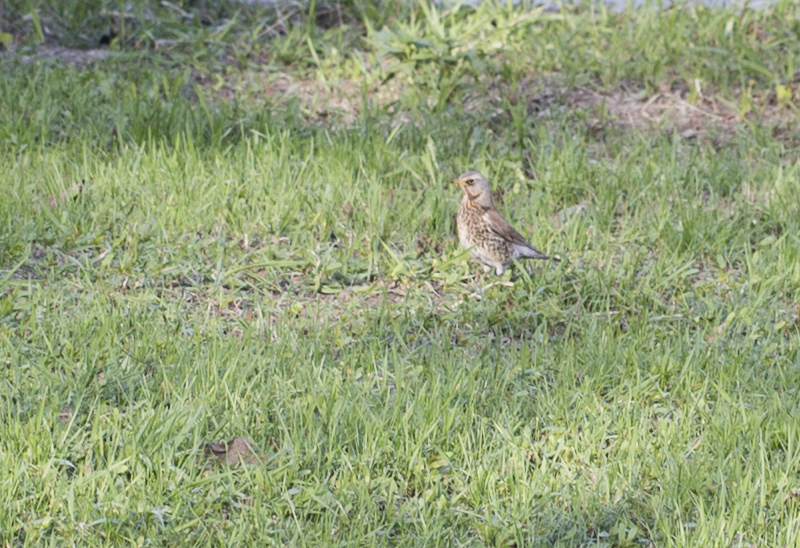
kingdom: Animalia
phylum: Chordata
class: Aves
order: Passeriformes
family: Turdidae
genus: Turdus
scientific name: Turdus pilaris
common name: Fieldfare
